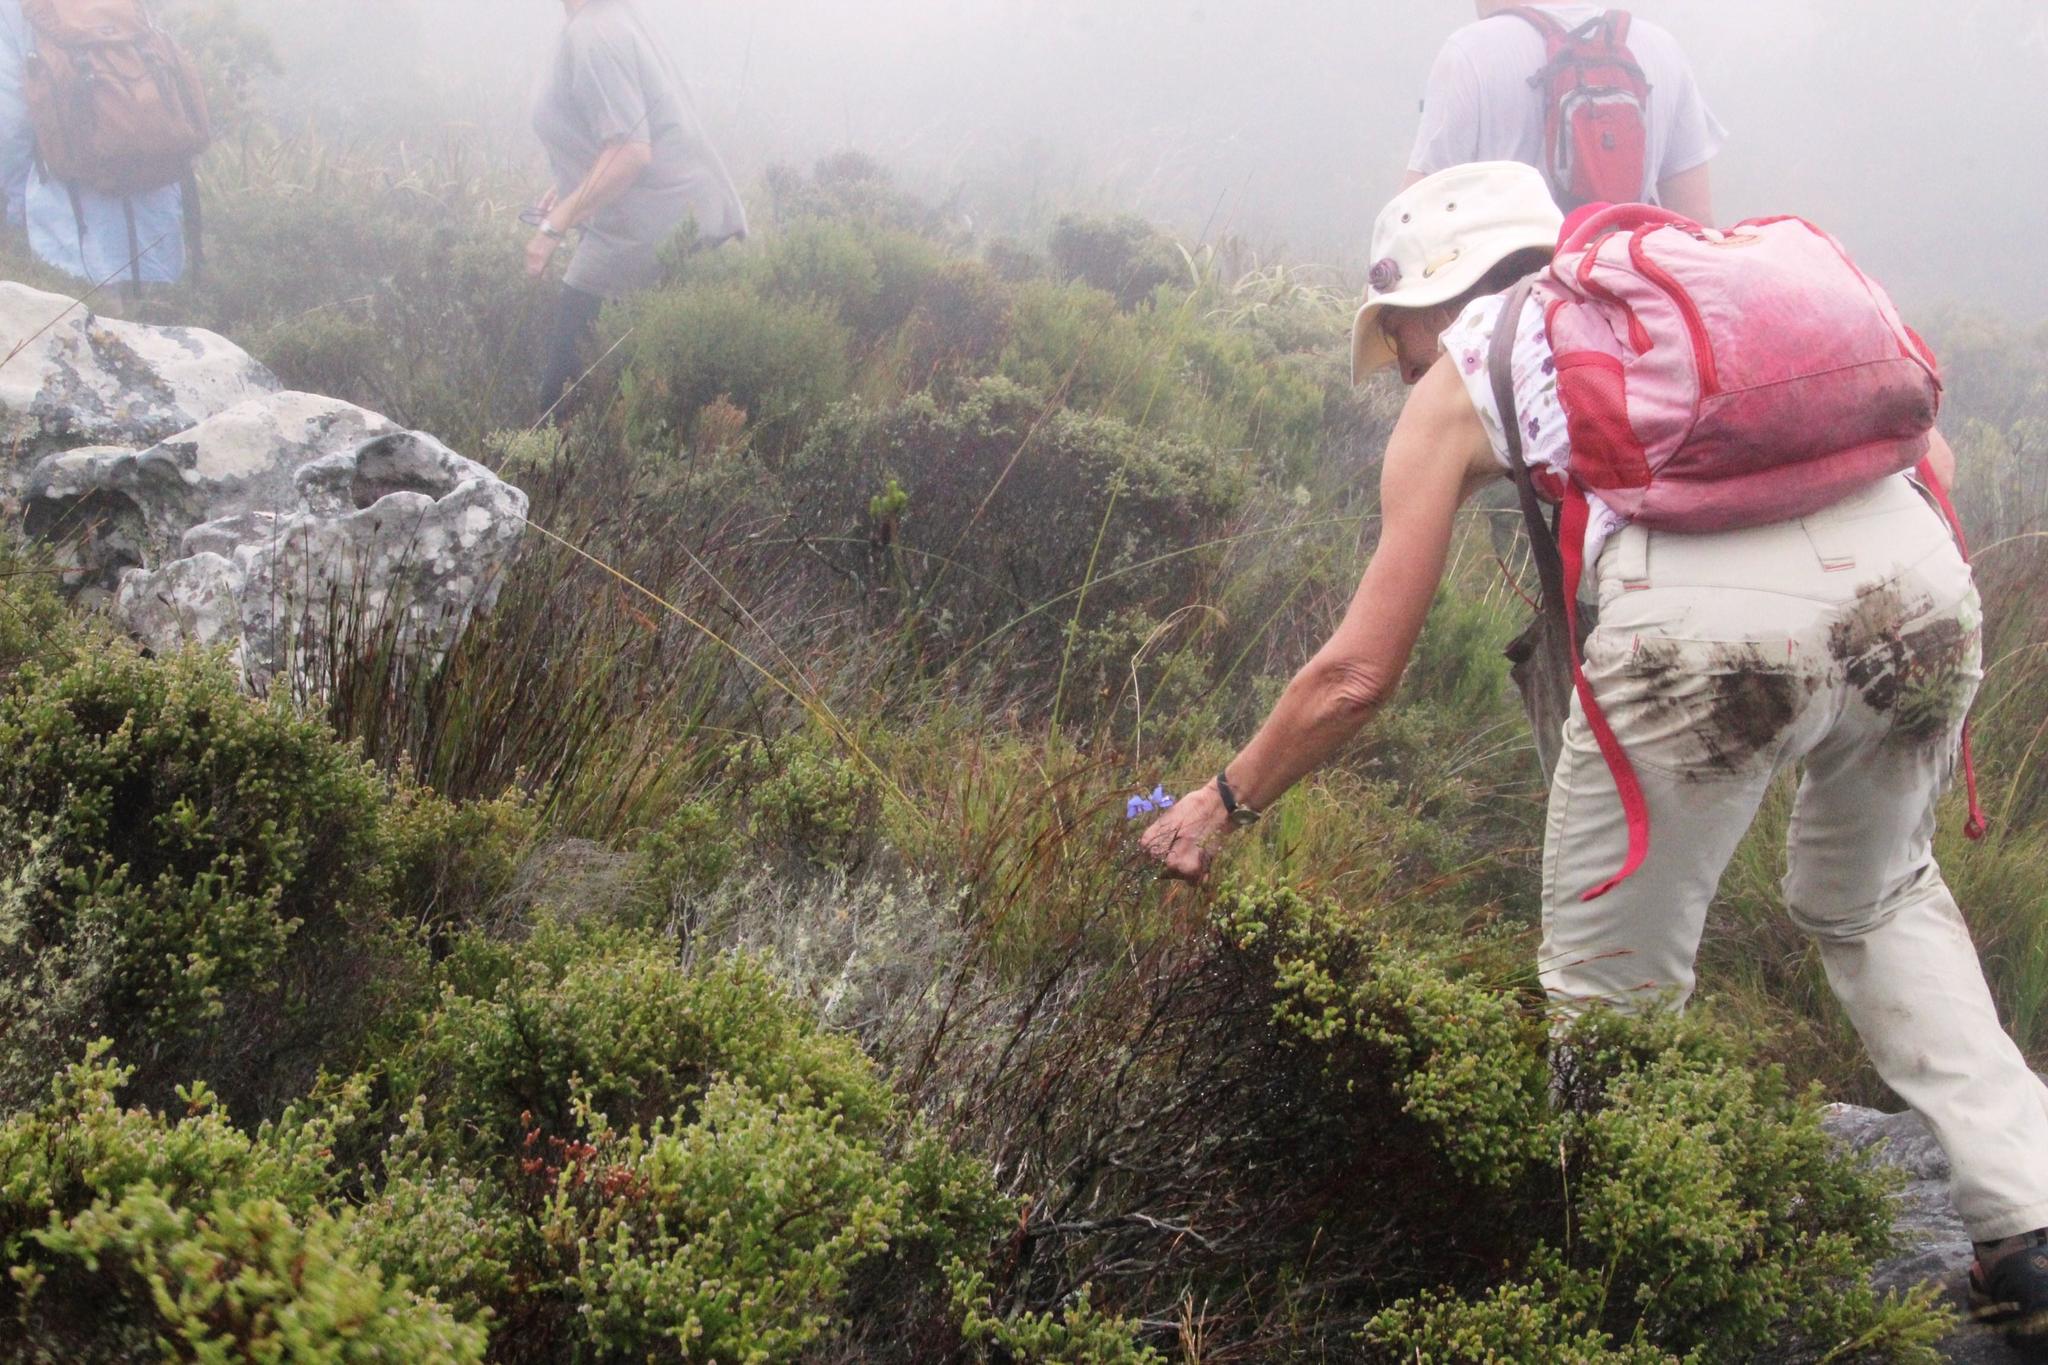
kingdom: Plantae
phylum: Tracheophyta
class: Liliopsida
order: Asparagales
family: Orchidaceae
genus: Disa
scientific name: Disa graminifolia
